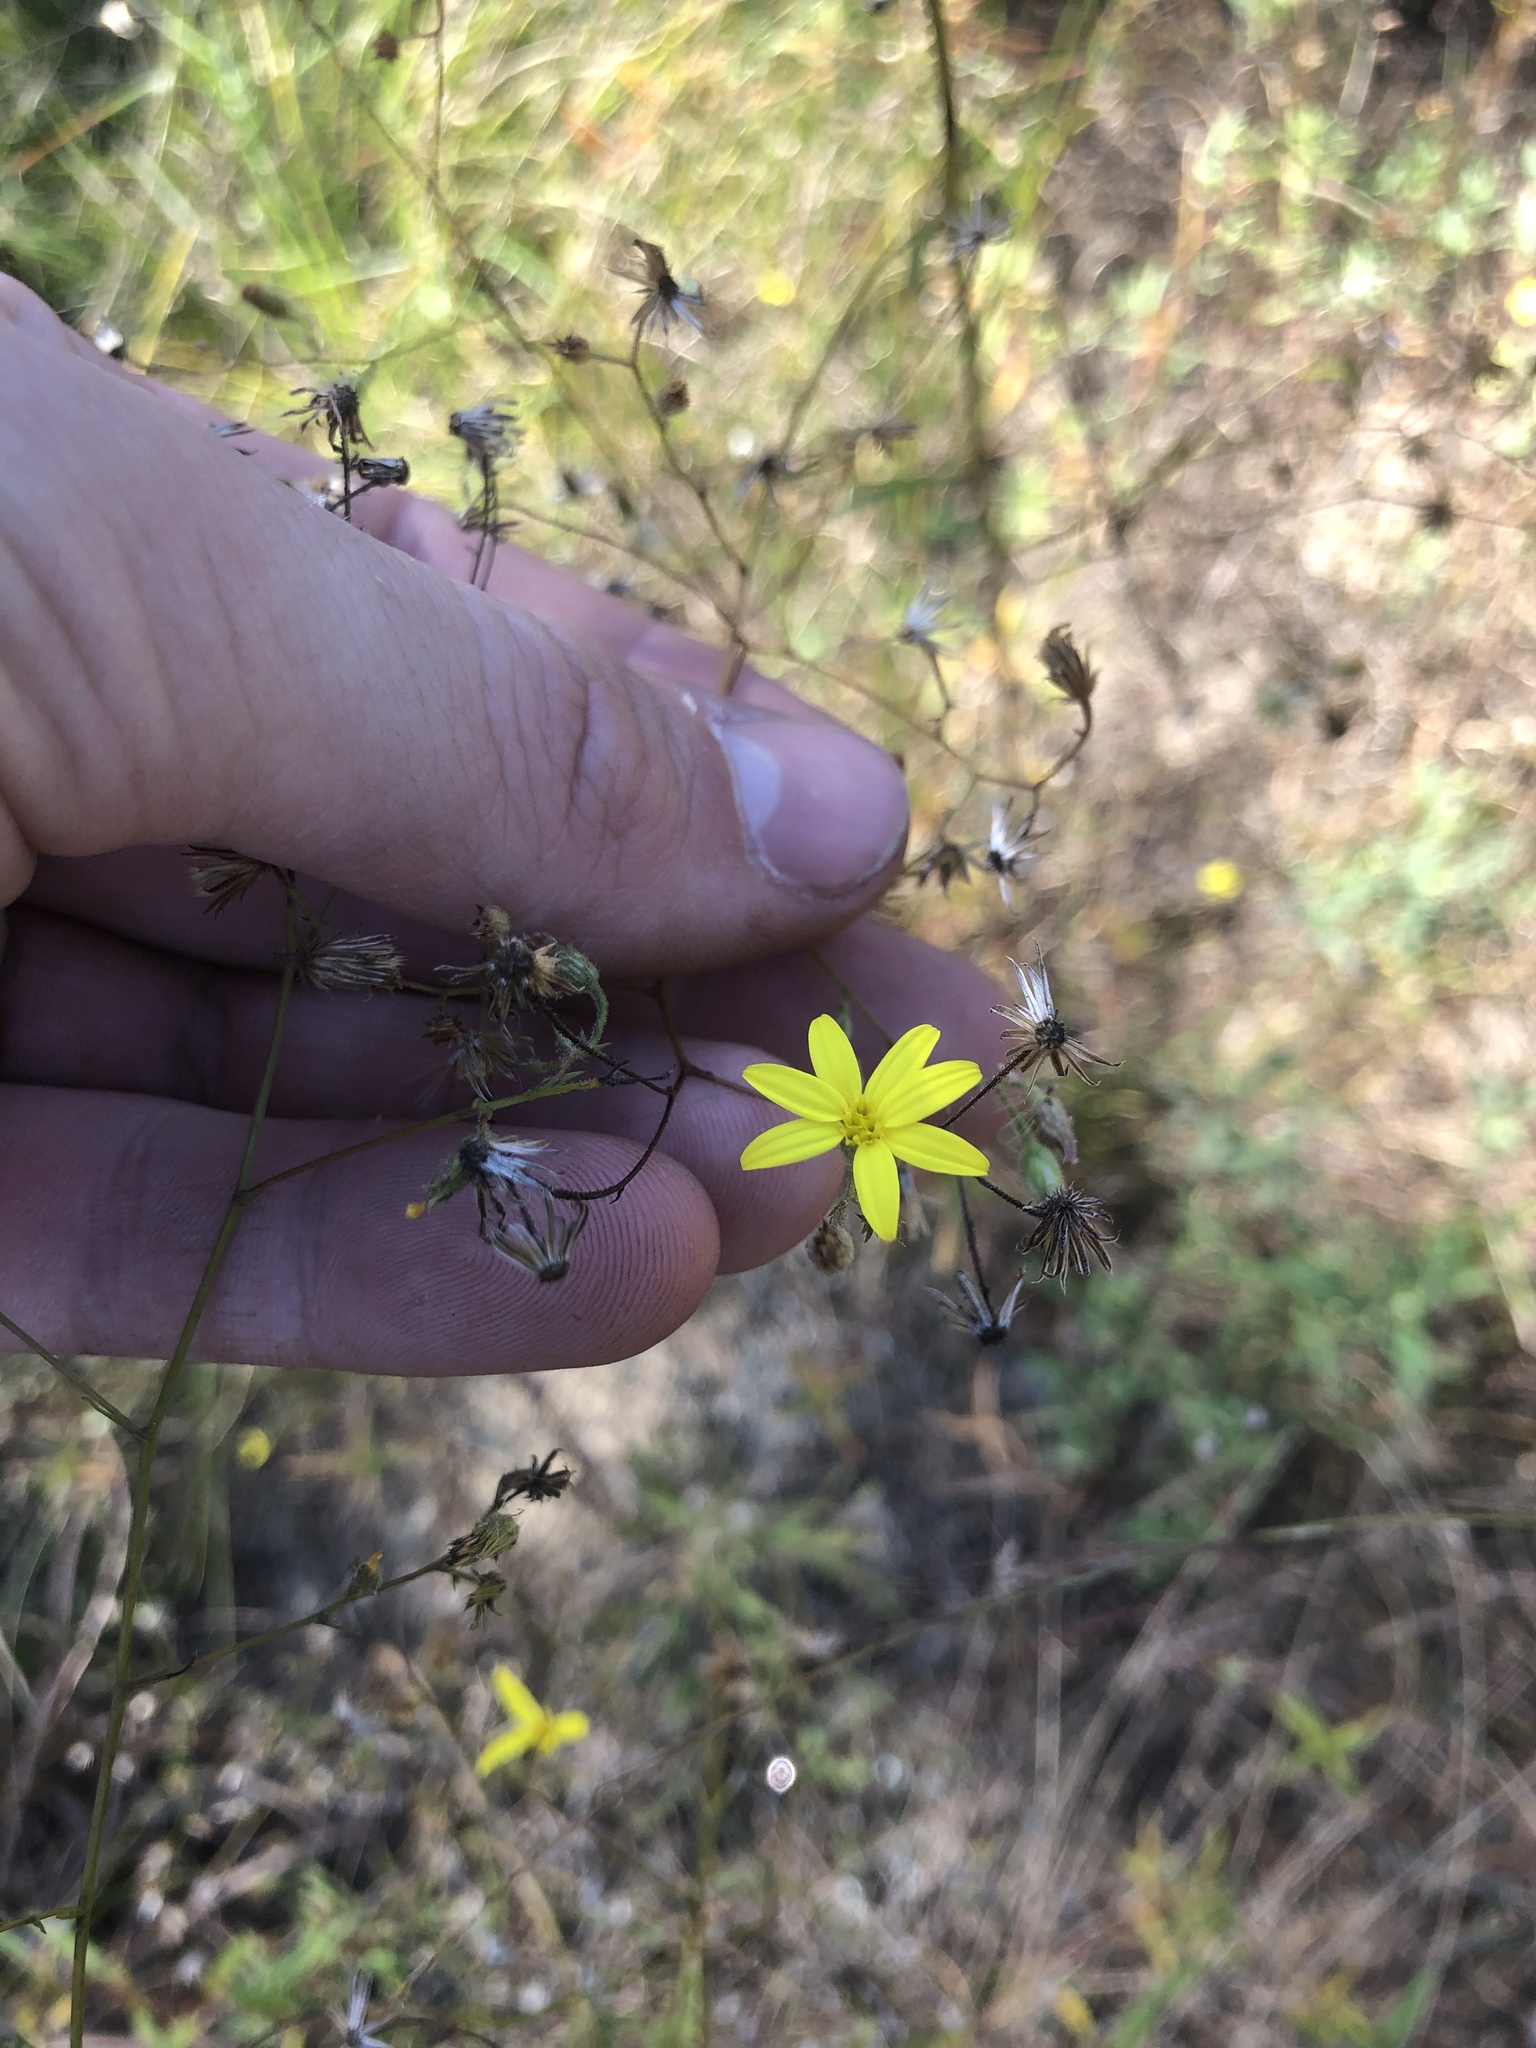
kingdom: Plantae
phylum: Tracheophyta
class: Magnoliopsida
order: Asterales
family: Asteraceae
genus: Croptilon
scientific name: Croptilon divaricatum
